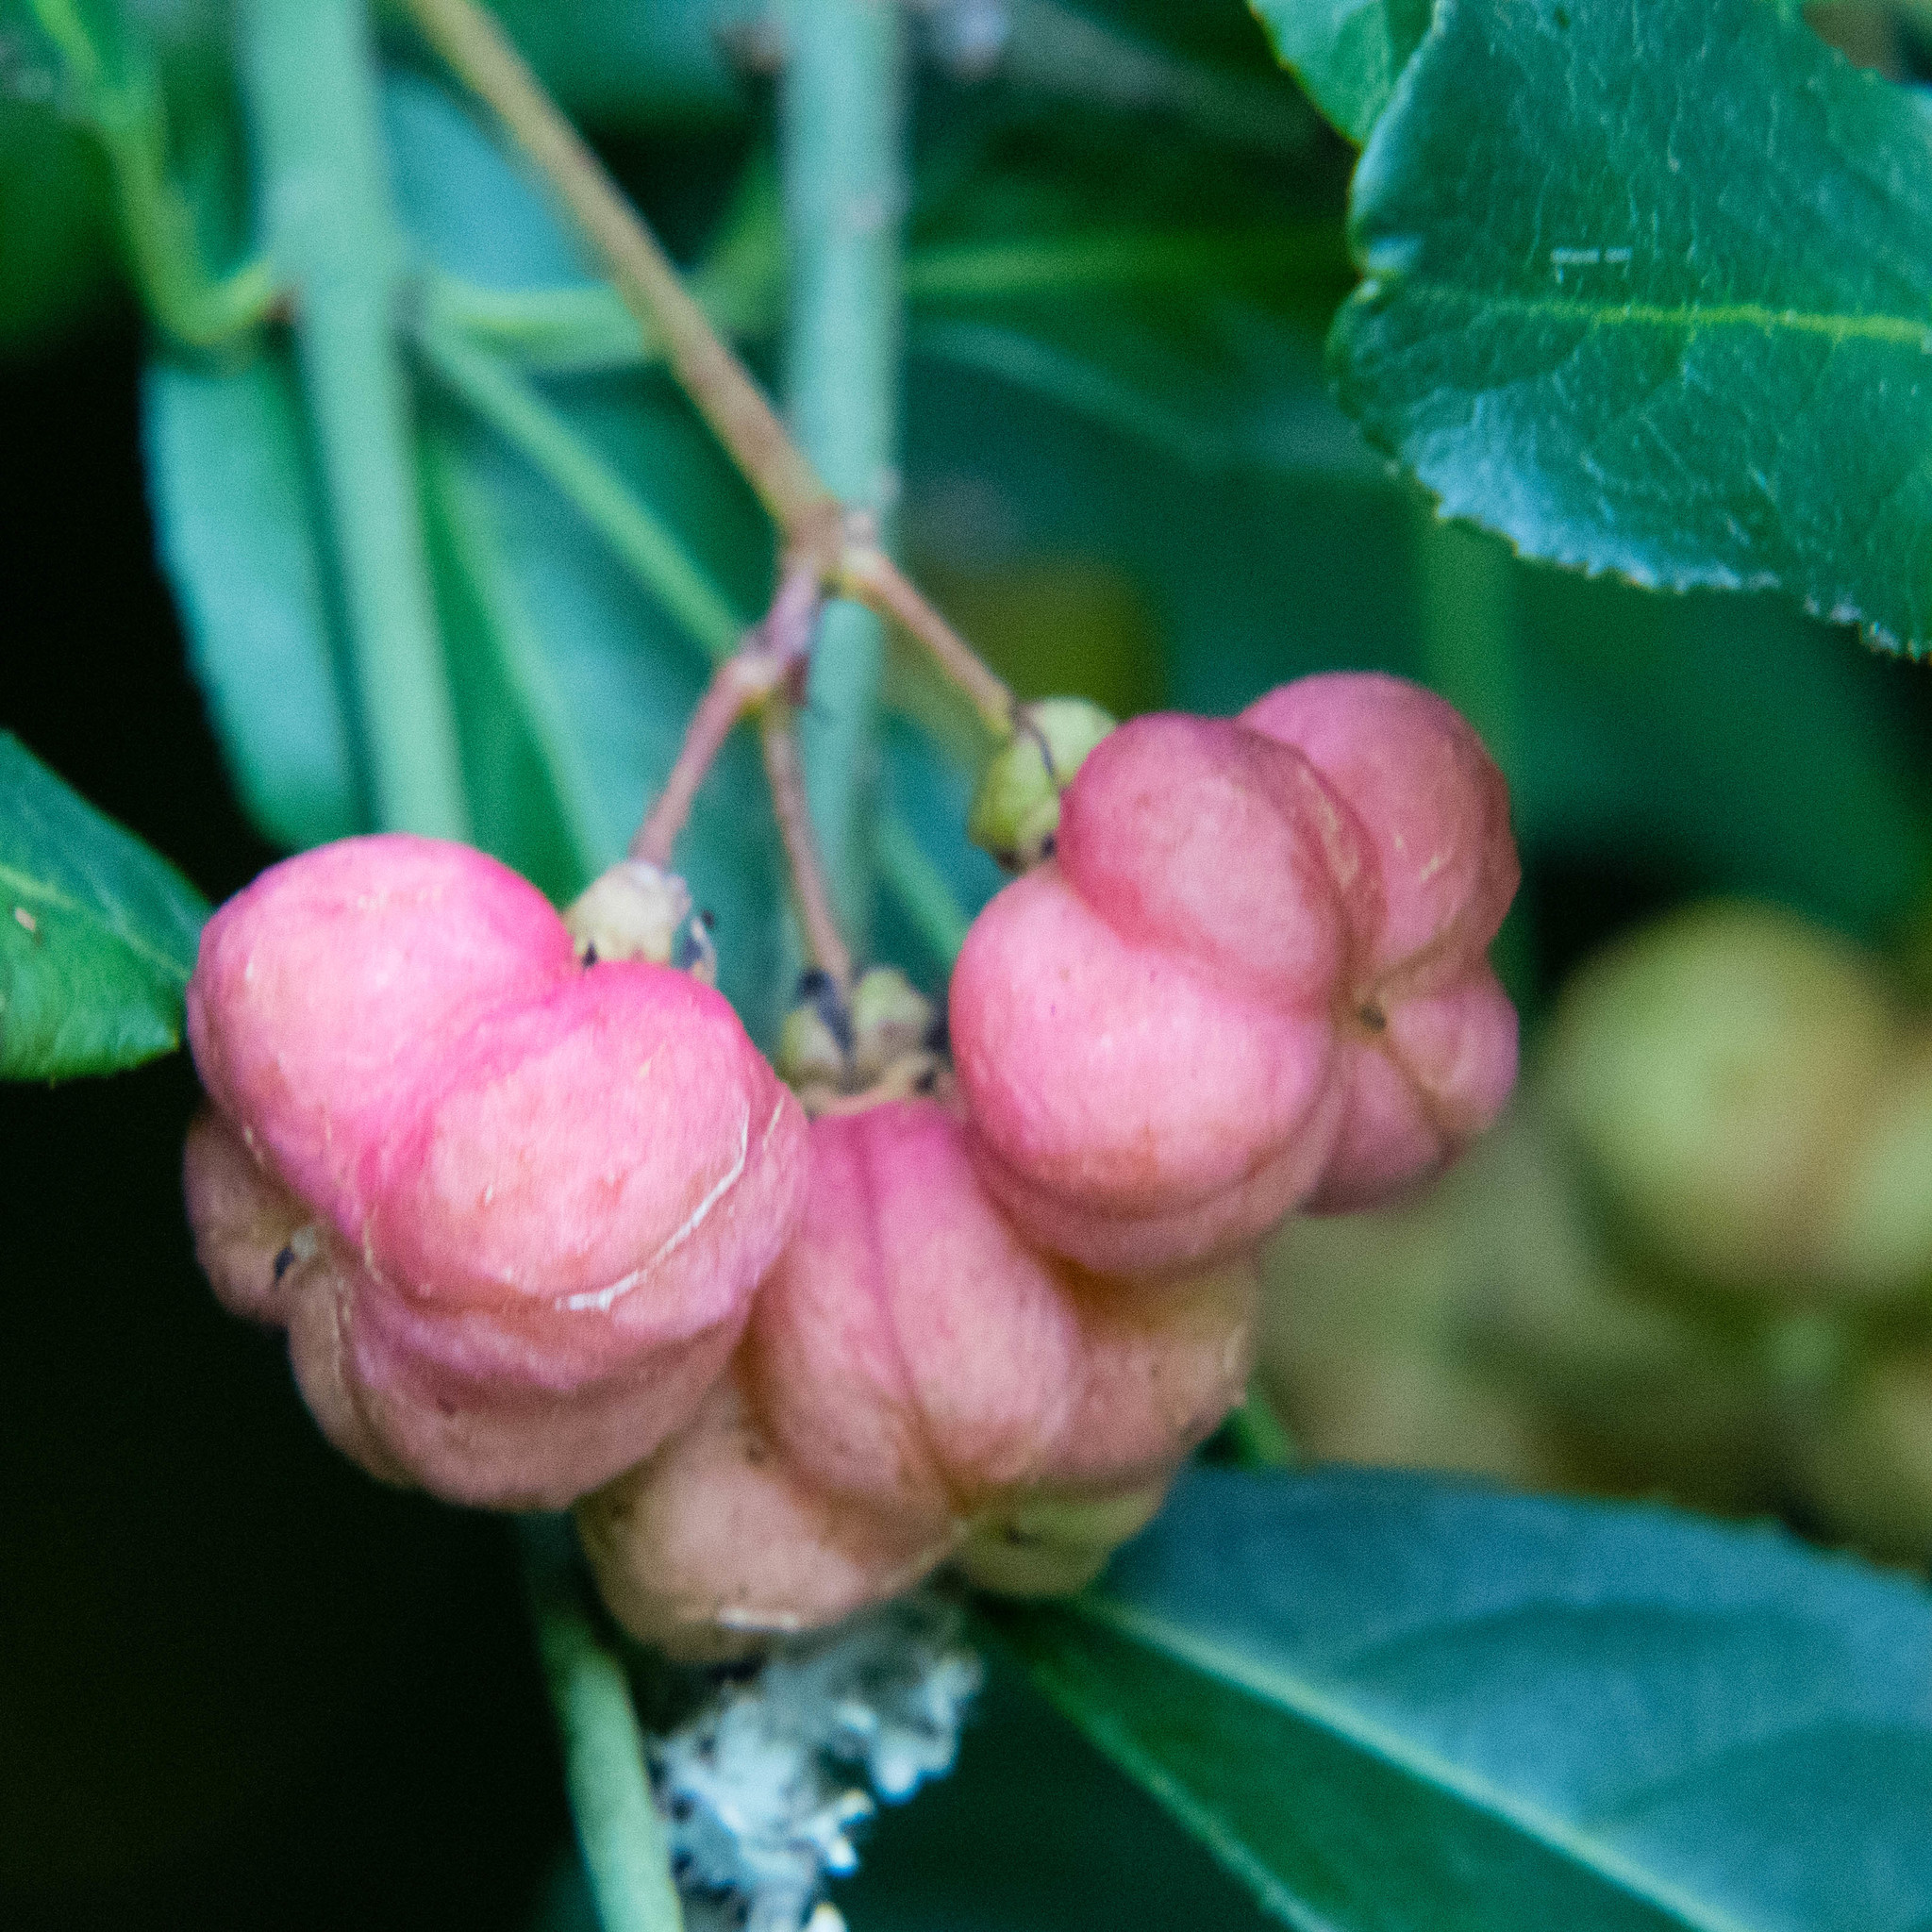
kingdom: Plantae
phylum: Tracheophyta
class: Magnoliopsida
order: Celastrales
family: Celastraceae
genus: Euonymus
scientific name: Euonymus europaeus
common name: Spindle
